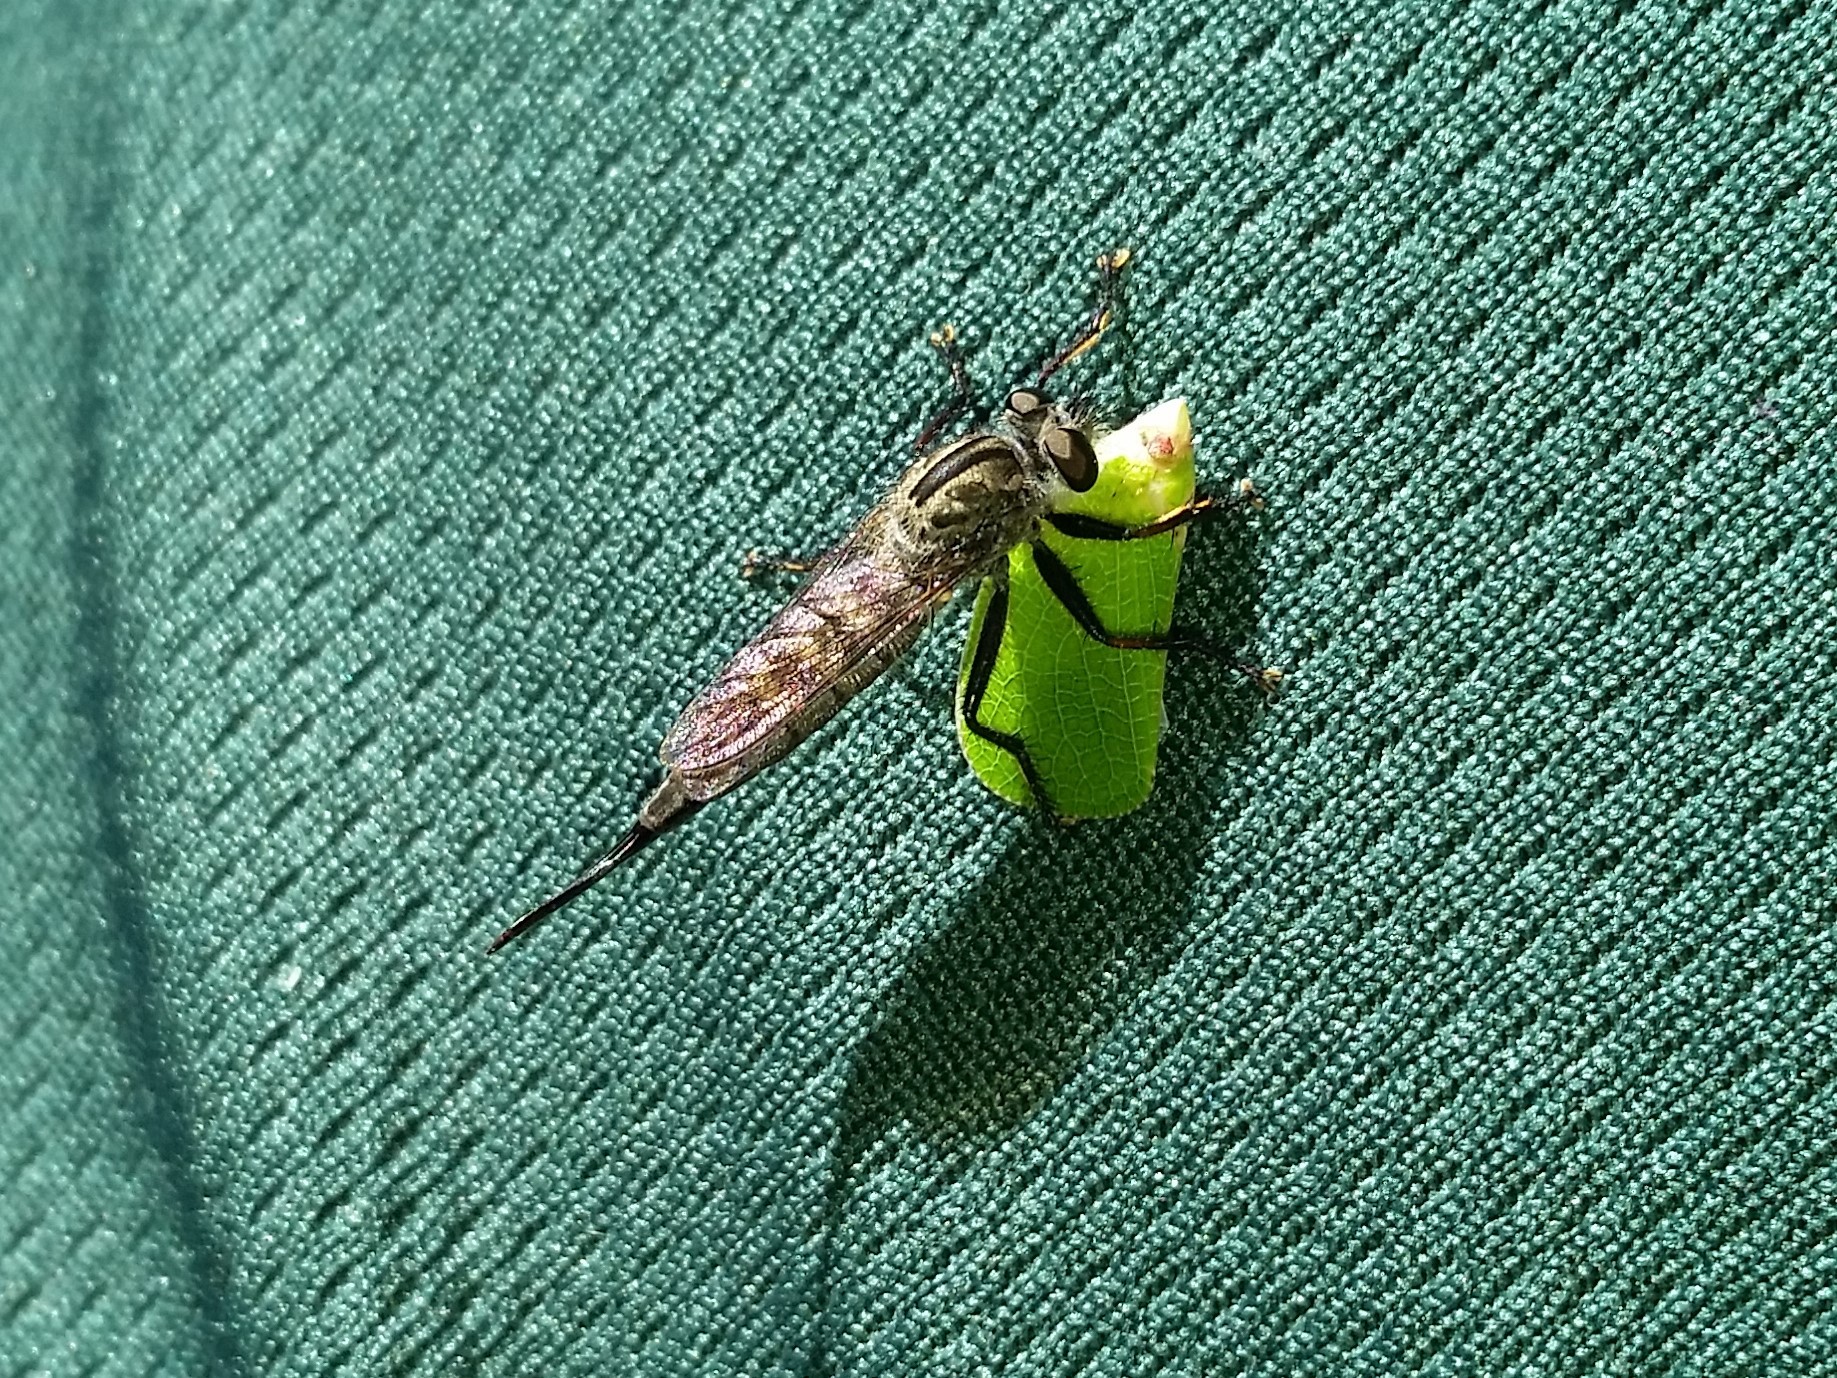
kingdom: Animalia
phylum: Arthropoda
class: Insecta
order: Diptera
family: Asilidae
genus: Efferia
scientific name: Efferia aestuans
